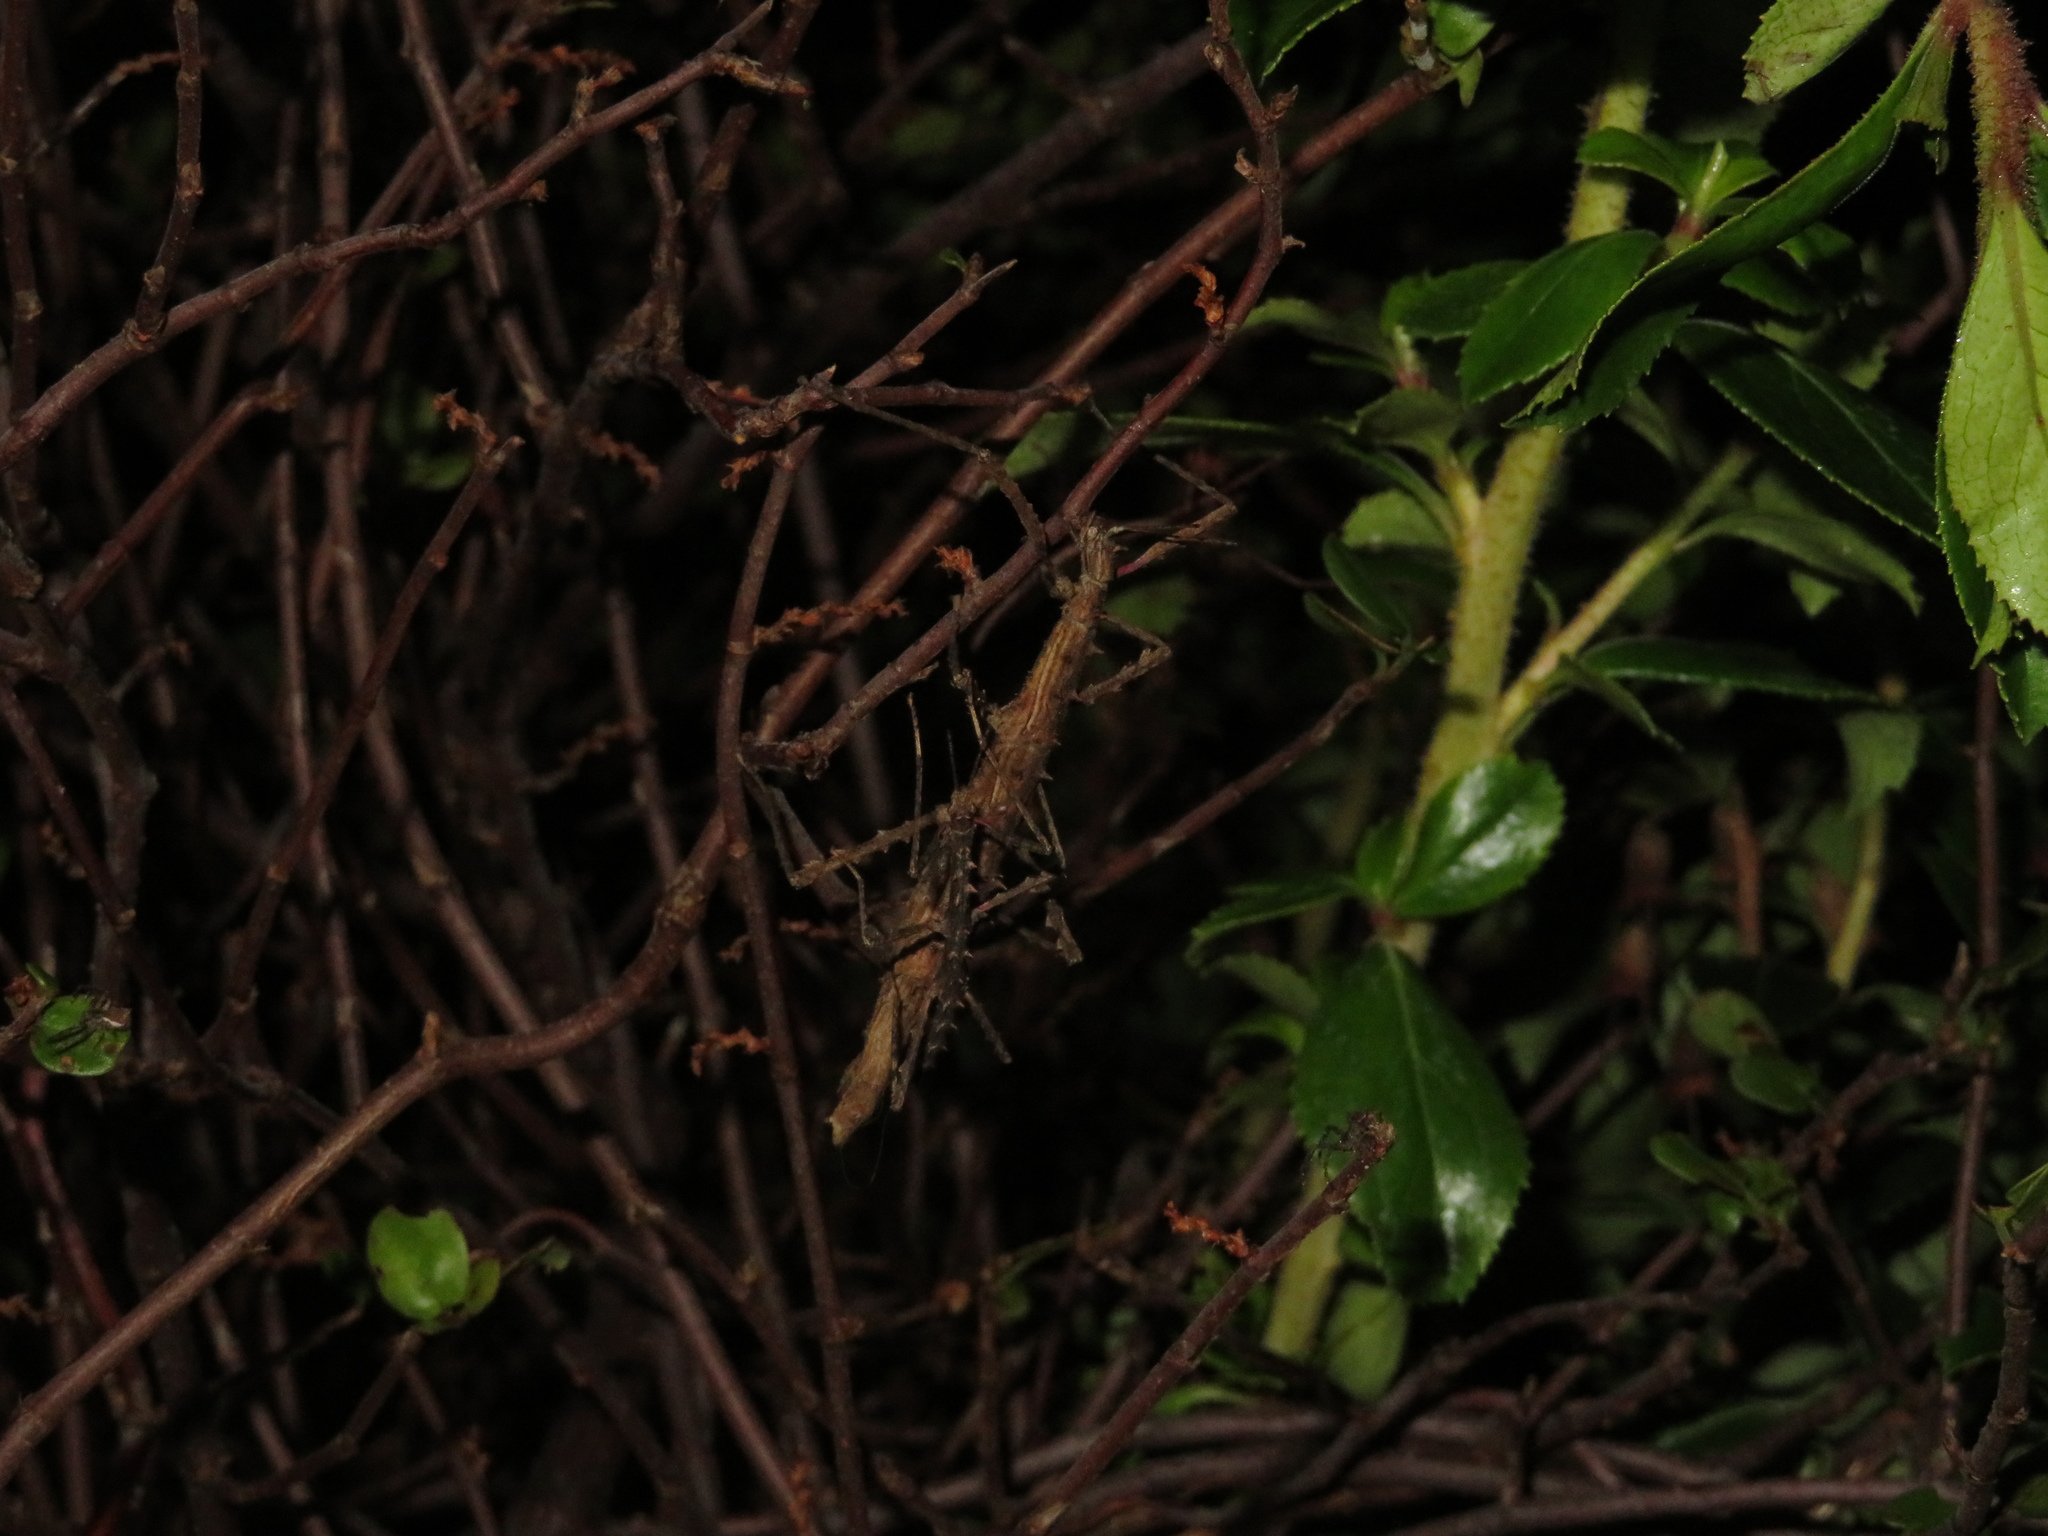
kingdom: Animalia
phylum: Arthropoda
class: Insecta
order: Phasmida
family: Phasmatidae
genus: Micrarchus
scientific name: Micrarchus hystriculeus
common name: The lesser spiny stick insect
